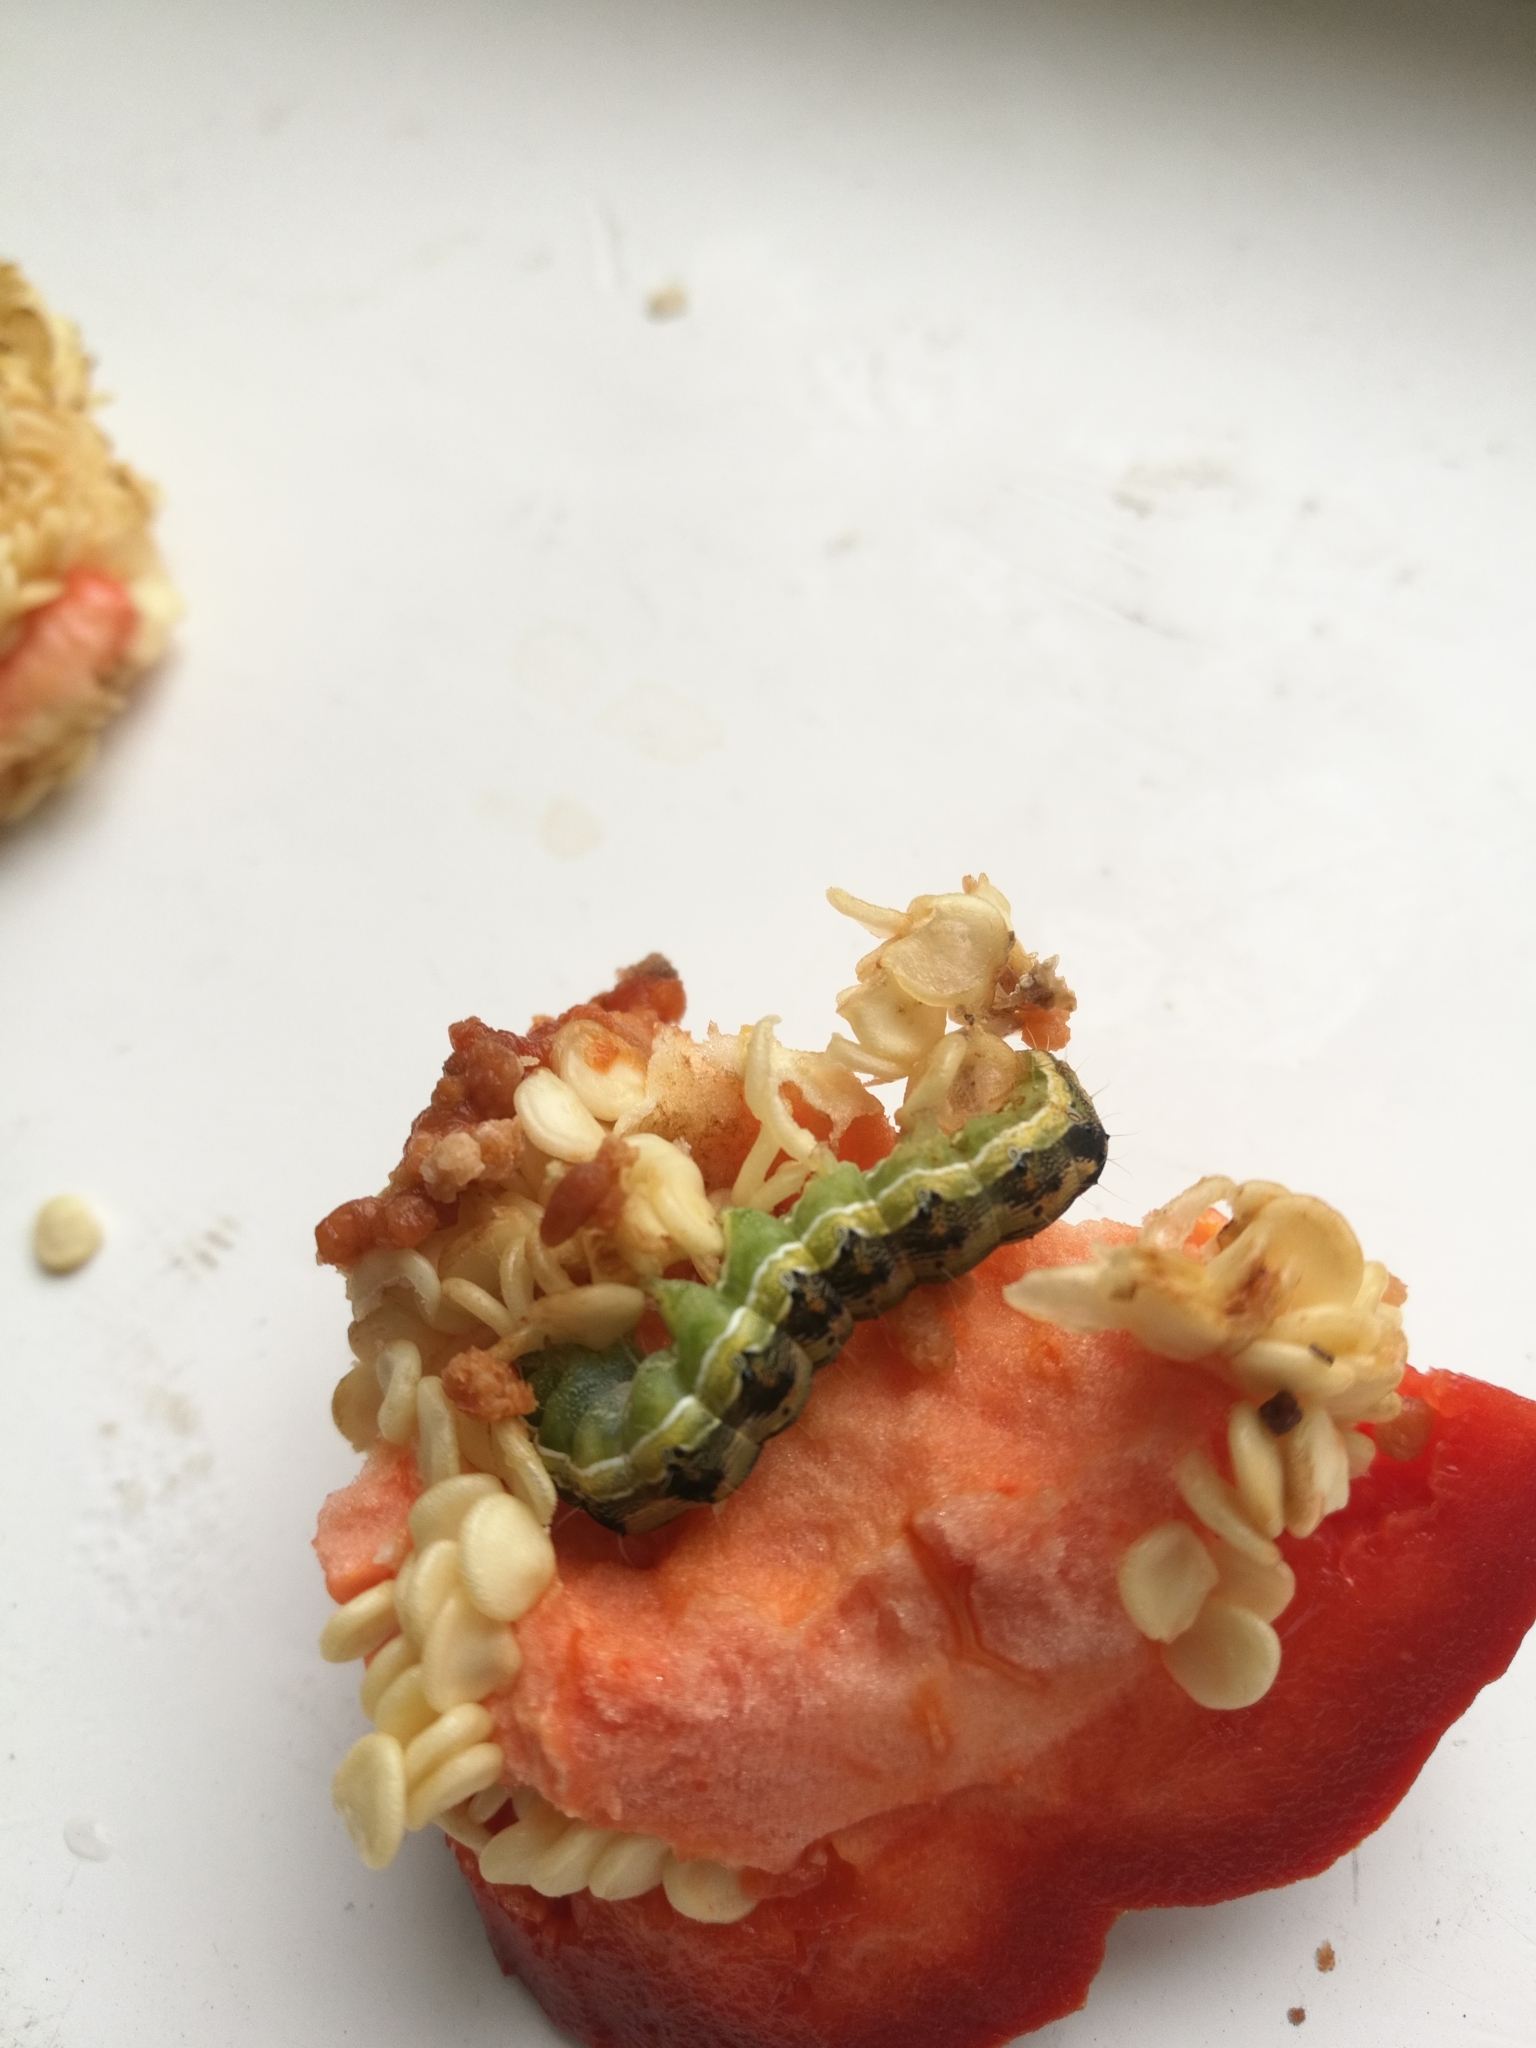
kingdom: Animalia
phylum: Arthropoda
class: Insecta
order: Lepidoptera
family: Noctuidae
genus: Helicoverpa
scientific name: Helicoverpa armigera
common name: Cotton bollworm
